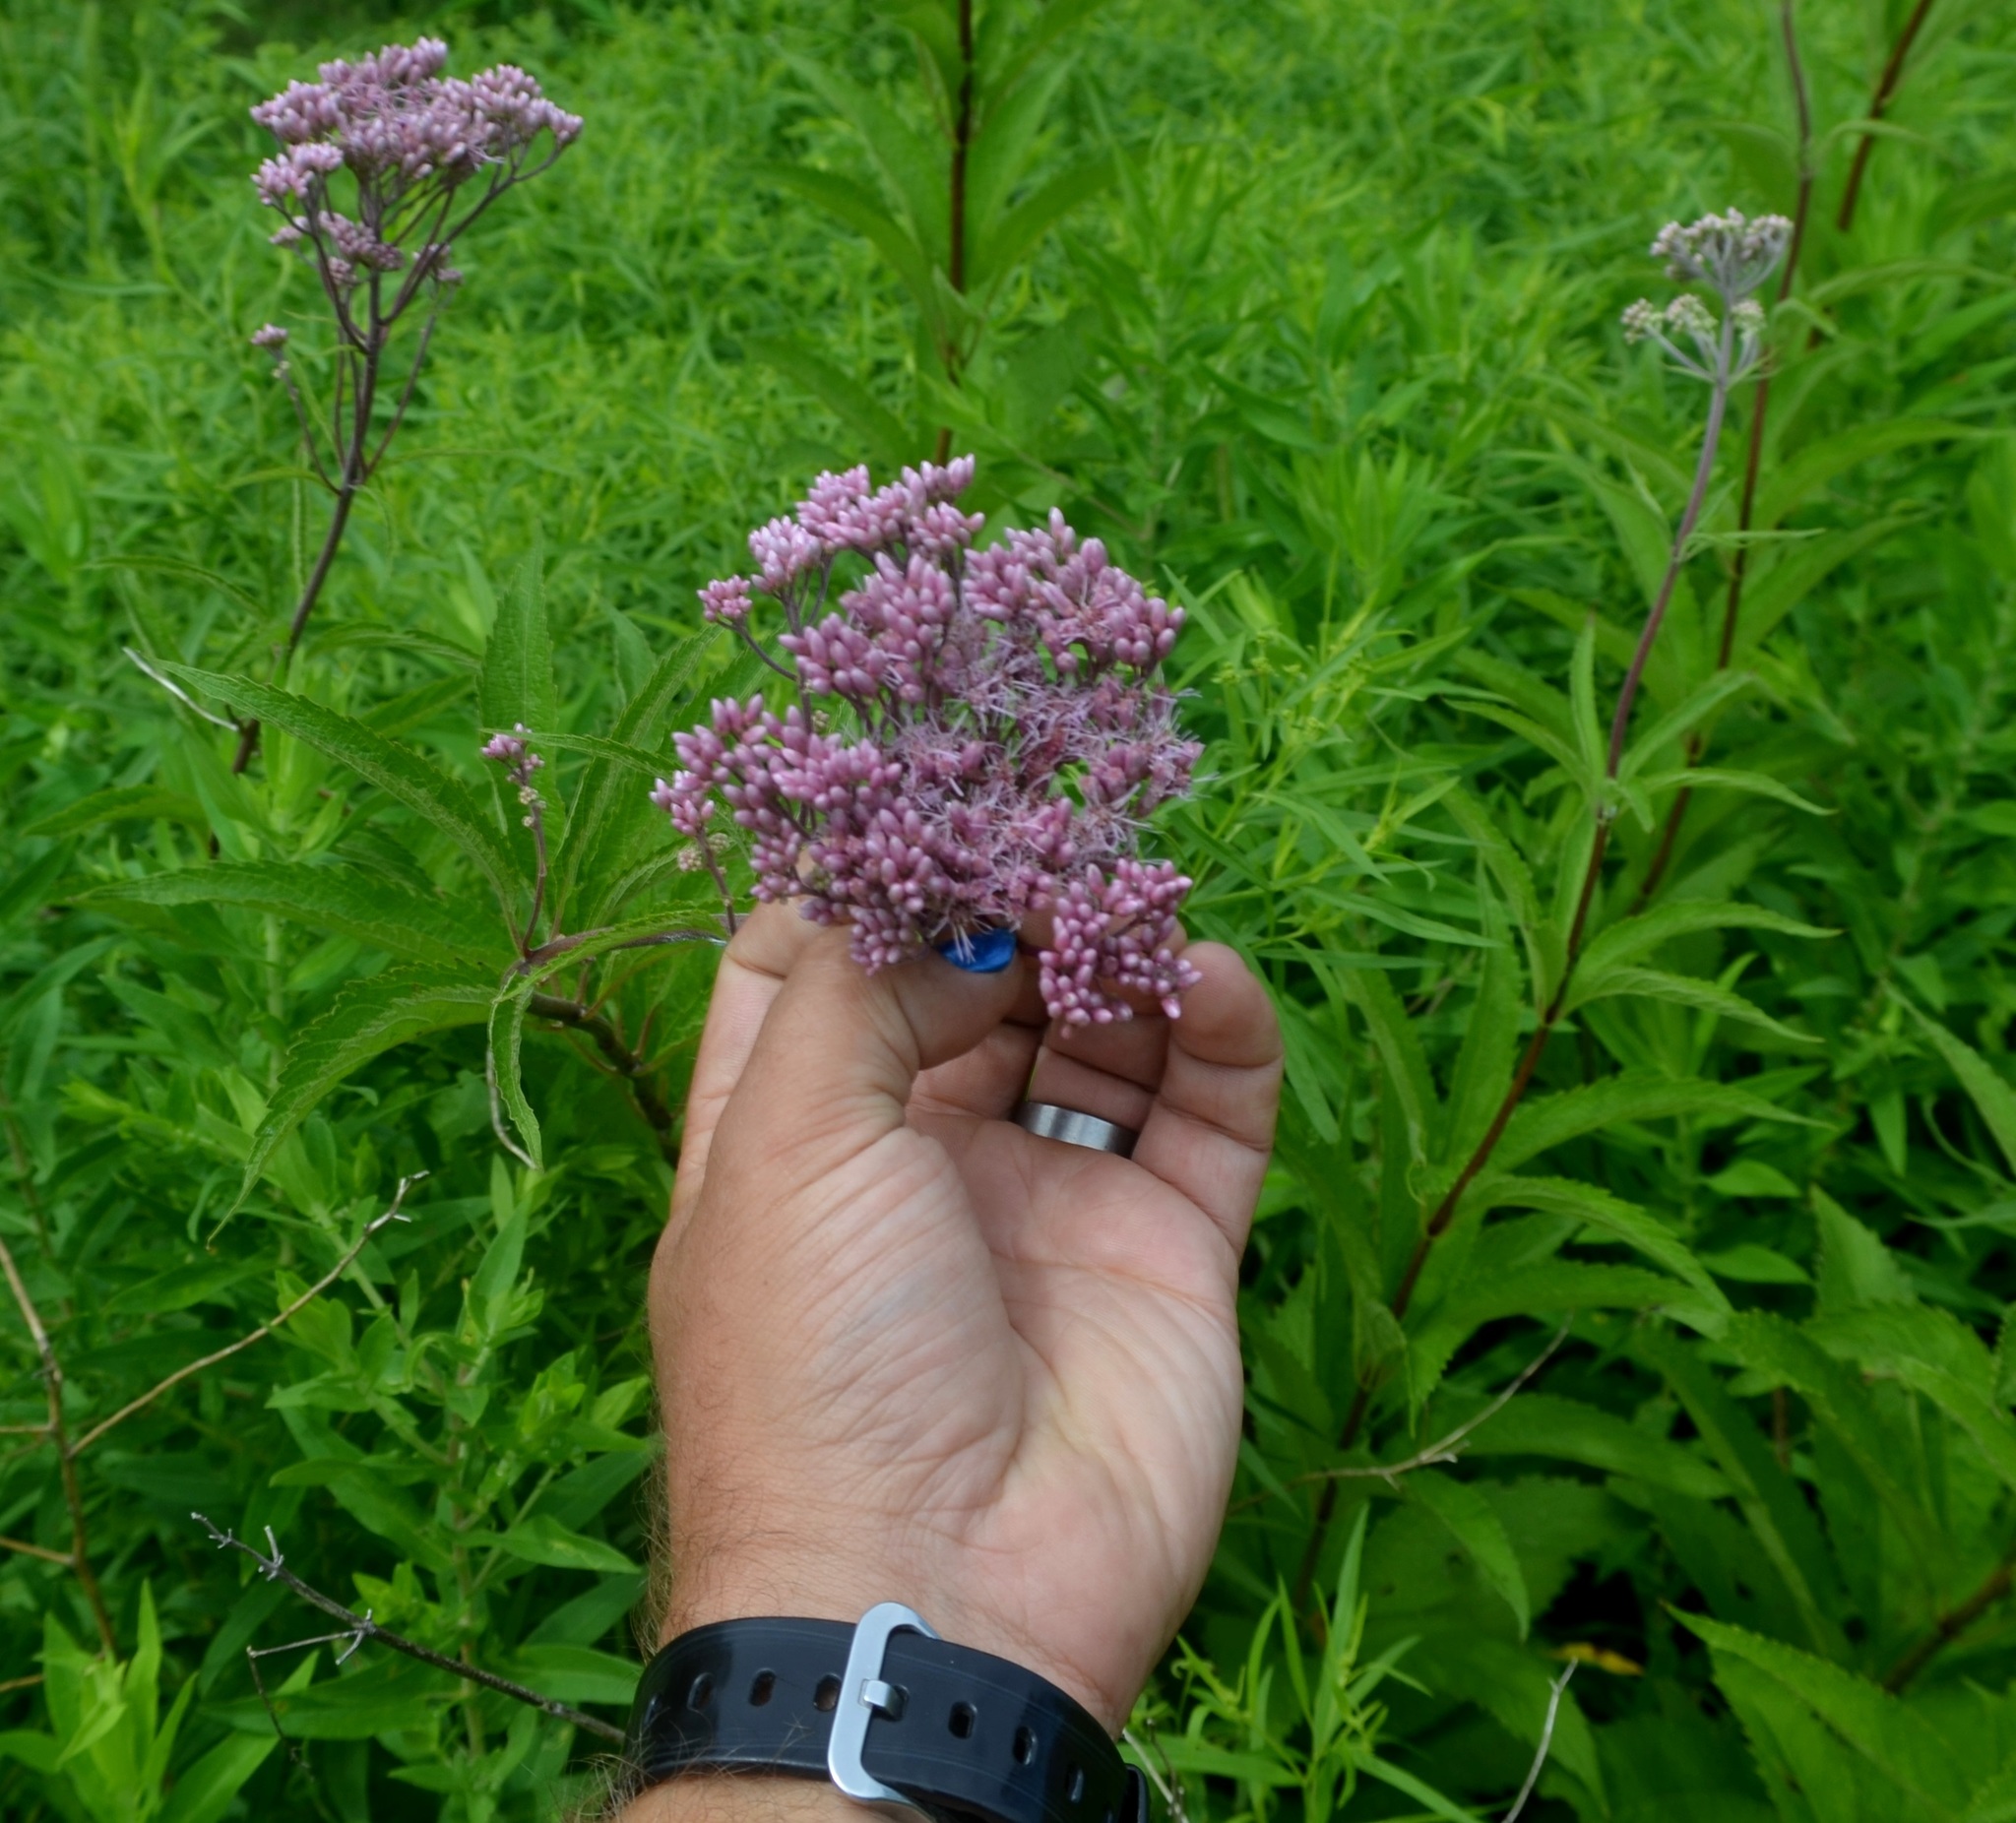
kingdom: Plantae
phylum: Tracheophyta
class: Magnoliopsida
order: Asterales
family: Asteraceae
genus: Eutrochium
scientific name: Eutrochium maculatum
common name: Spotted joe pye weed
